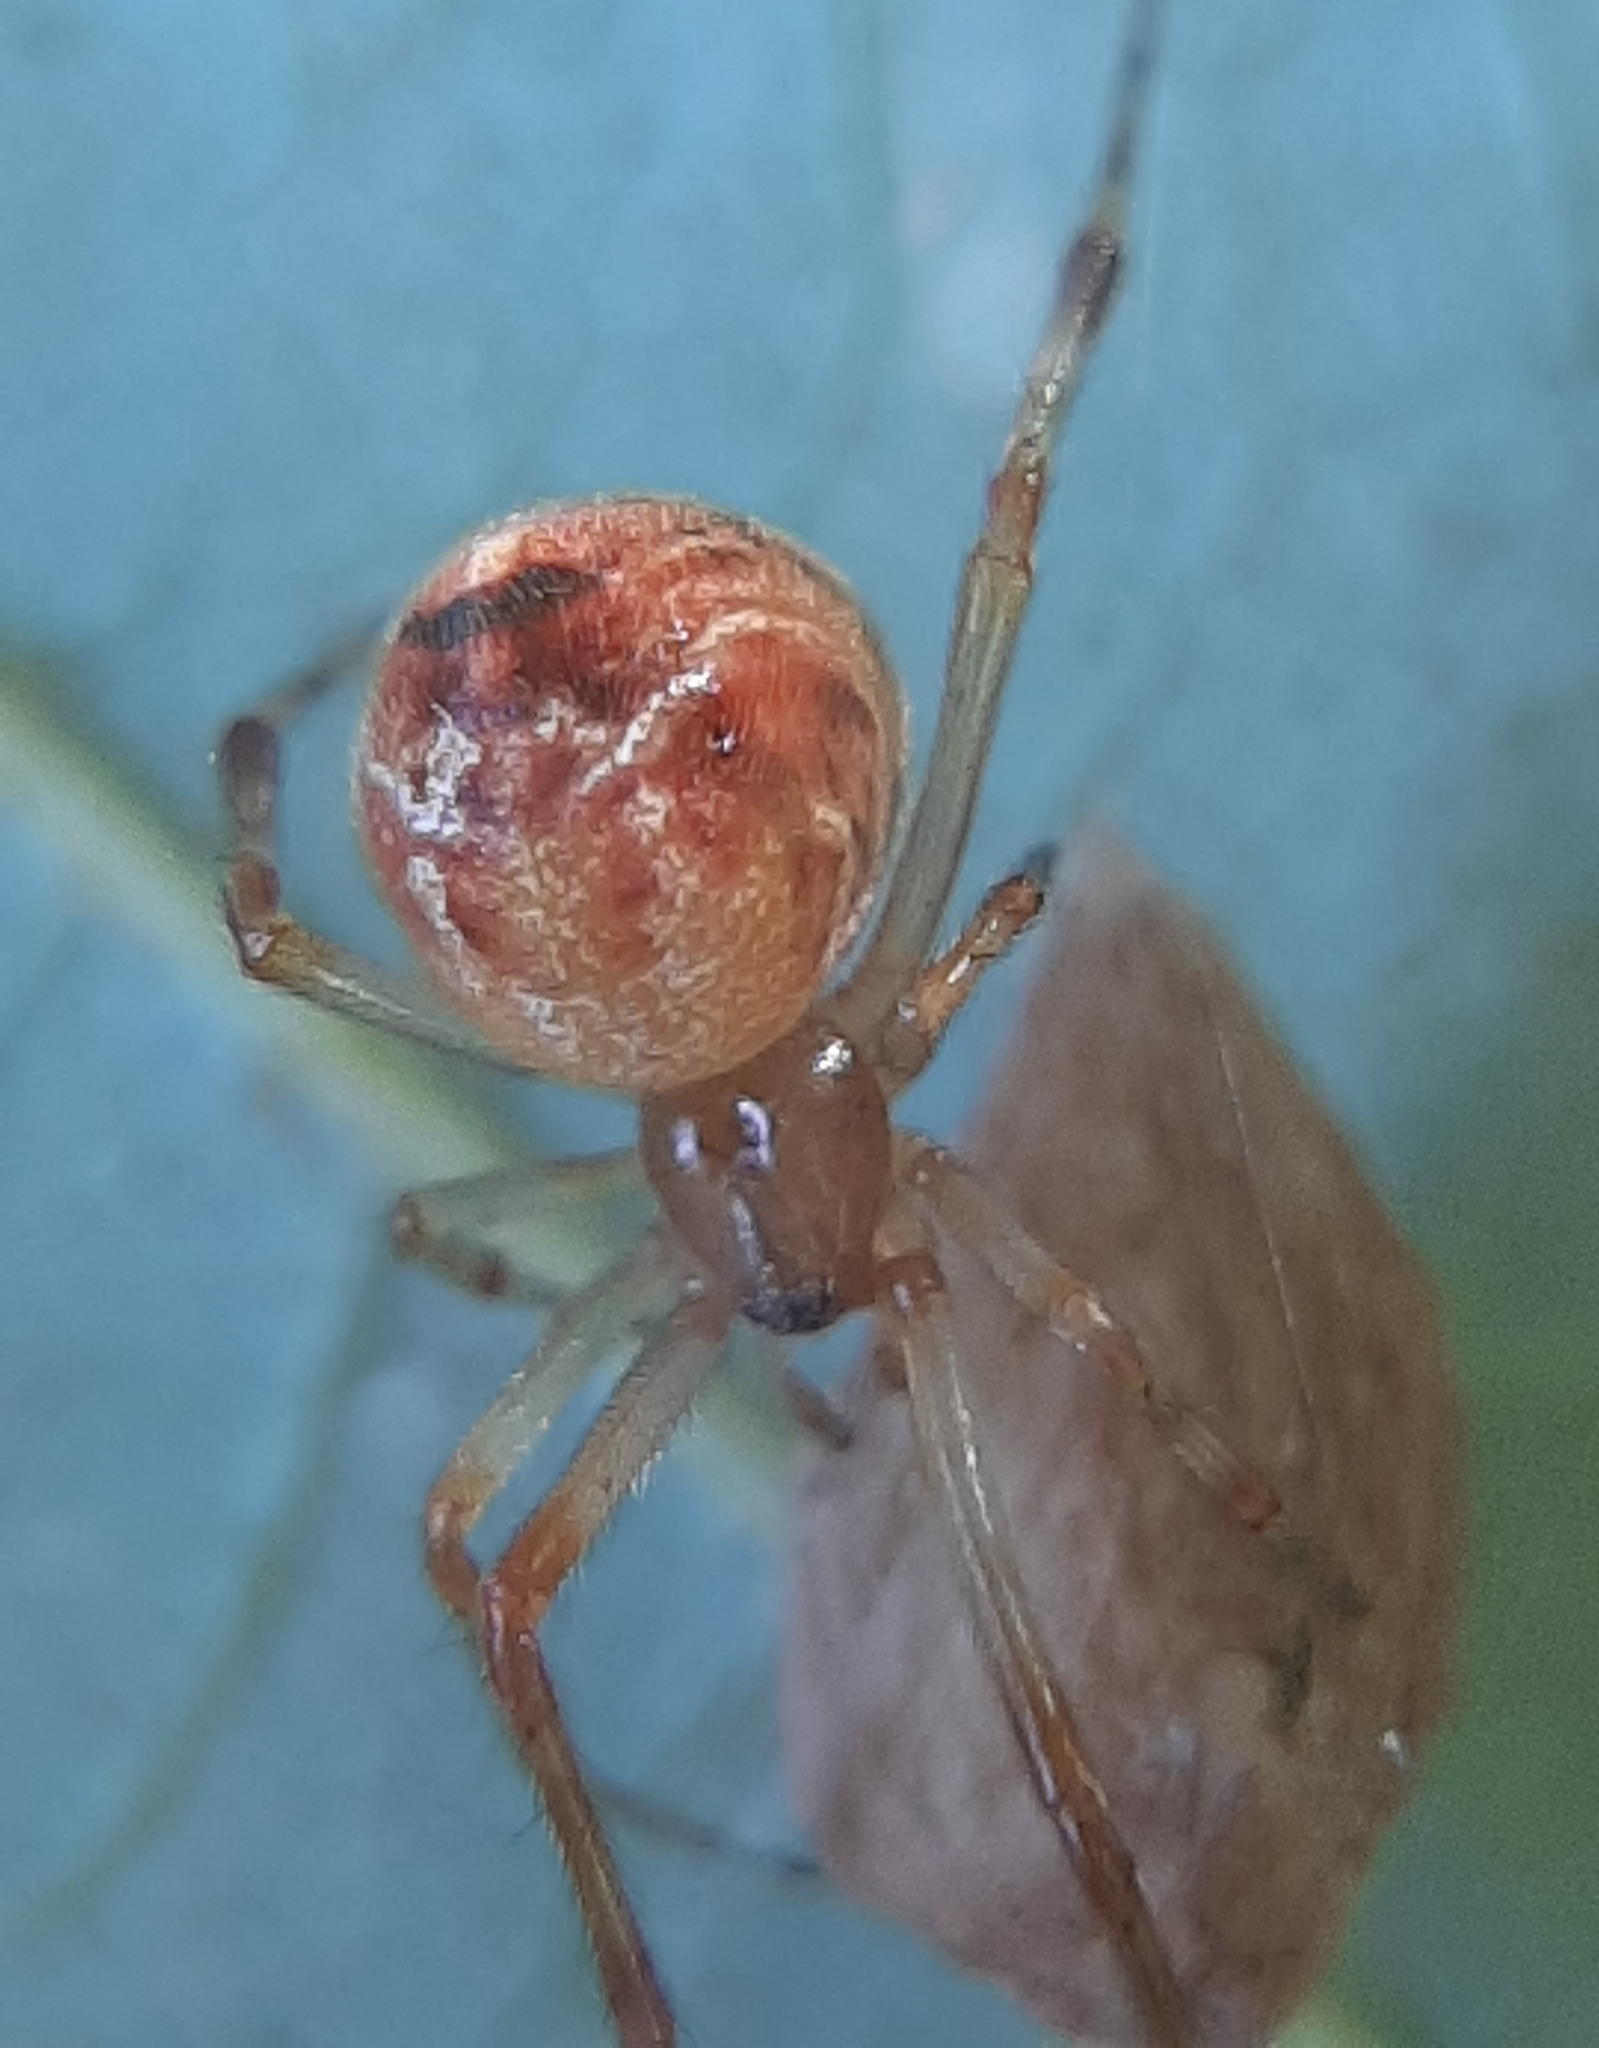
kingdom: Animalia
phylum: Arthropoda
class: Arachnida
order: Araneae
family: Theridiidae
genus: Parasteatoda
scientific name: Parasteatoda tepidariorum
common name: Common house spider
